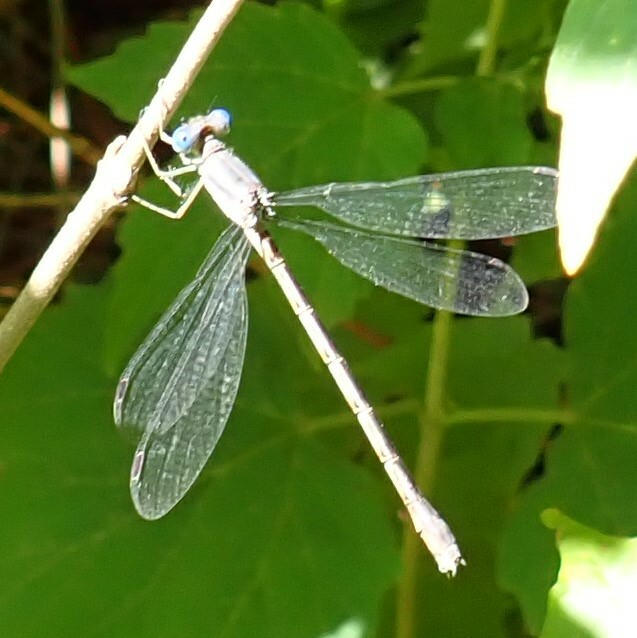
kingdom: Animalia
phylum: Arthropoda
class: Insecta
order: Odonata
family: Lestidae
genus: Lestes
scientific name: Lestes rectangularis
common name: Slender spreadwing
